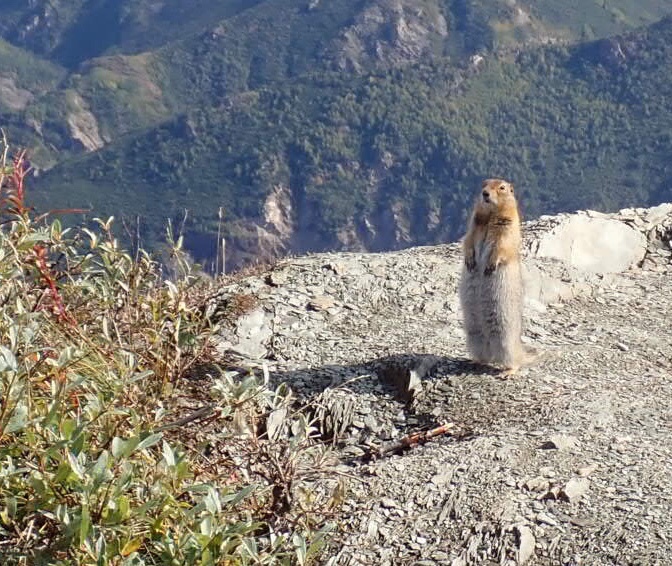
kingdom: Animalia
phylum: Chordata
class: Mammalia
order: Rodentia
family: Sciuridae
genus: Urocitellus
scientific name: Urocitellus parryii
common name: Arctic ground squirrel
